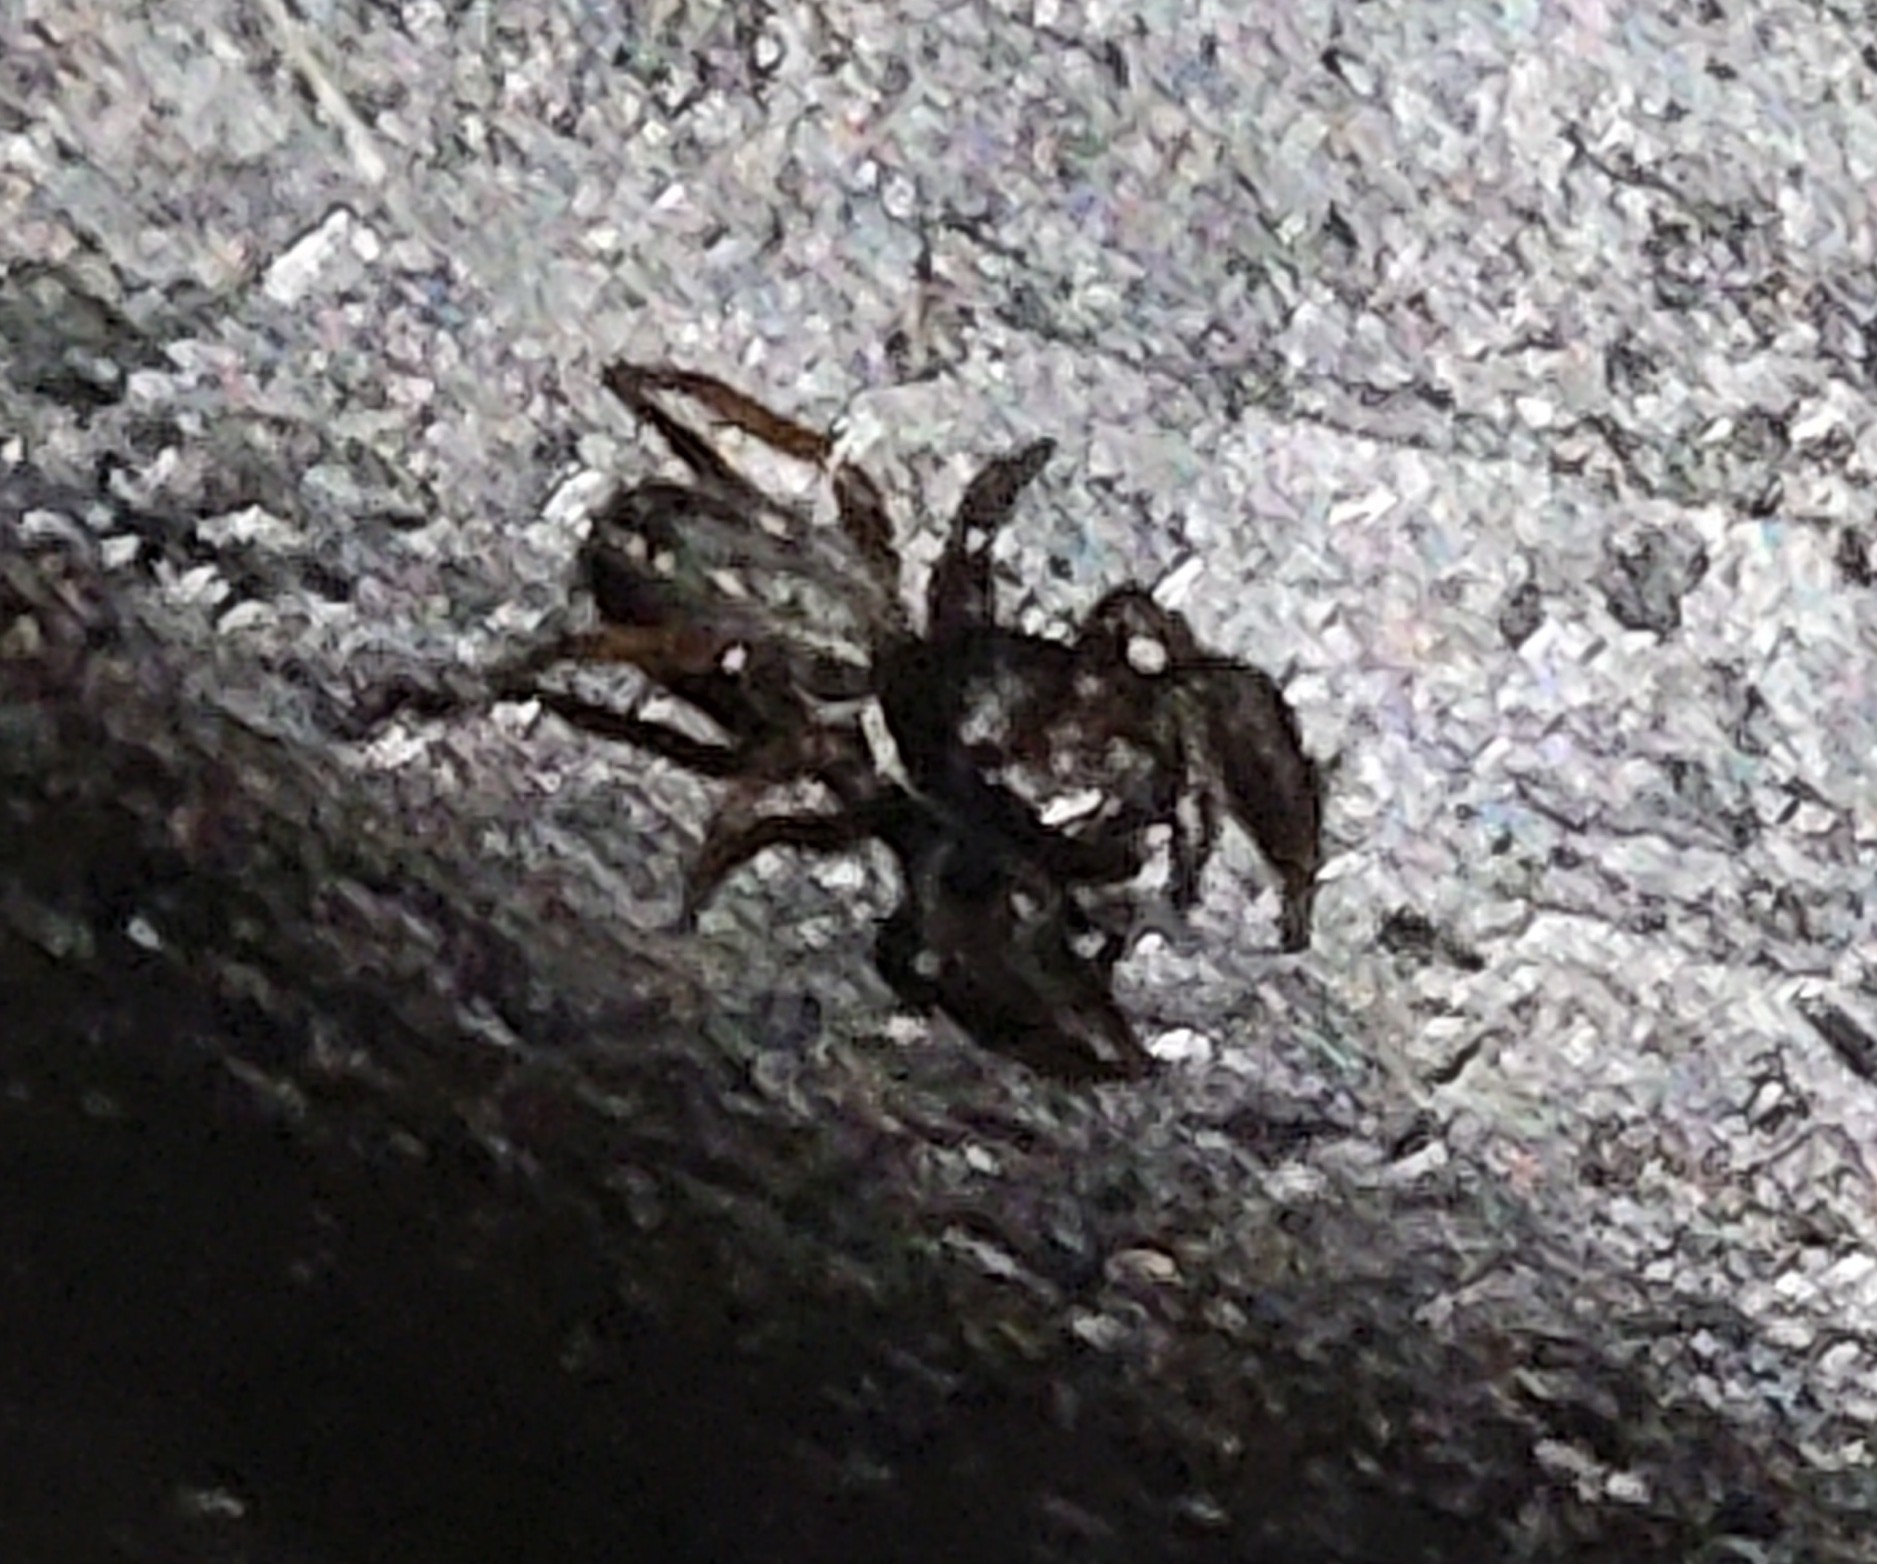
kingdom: Animalia
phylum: Arthropoda
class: Arachnida
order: Araneae
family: Salticidae
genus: Metacyrba
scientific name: Metacyrba taeniola
